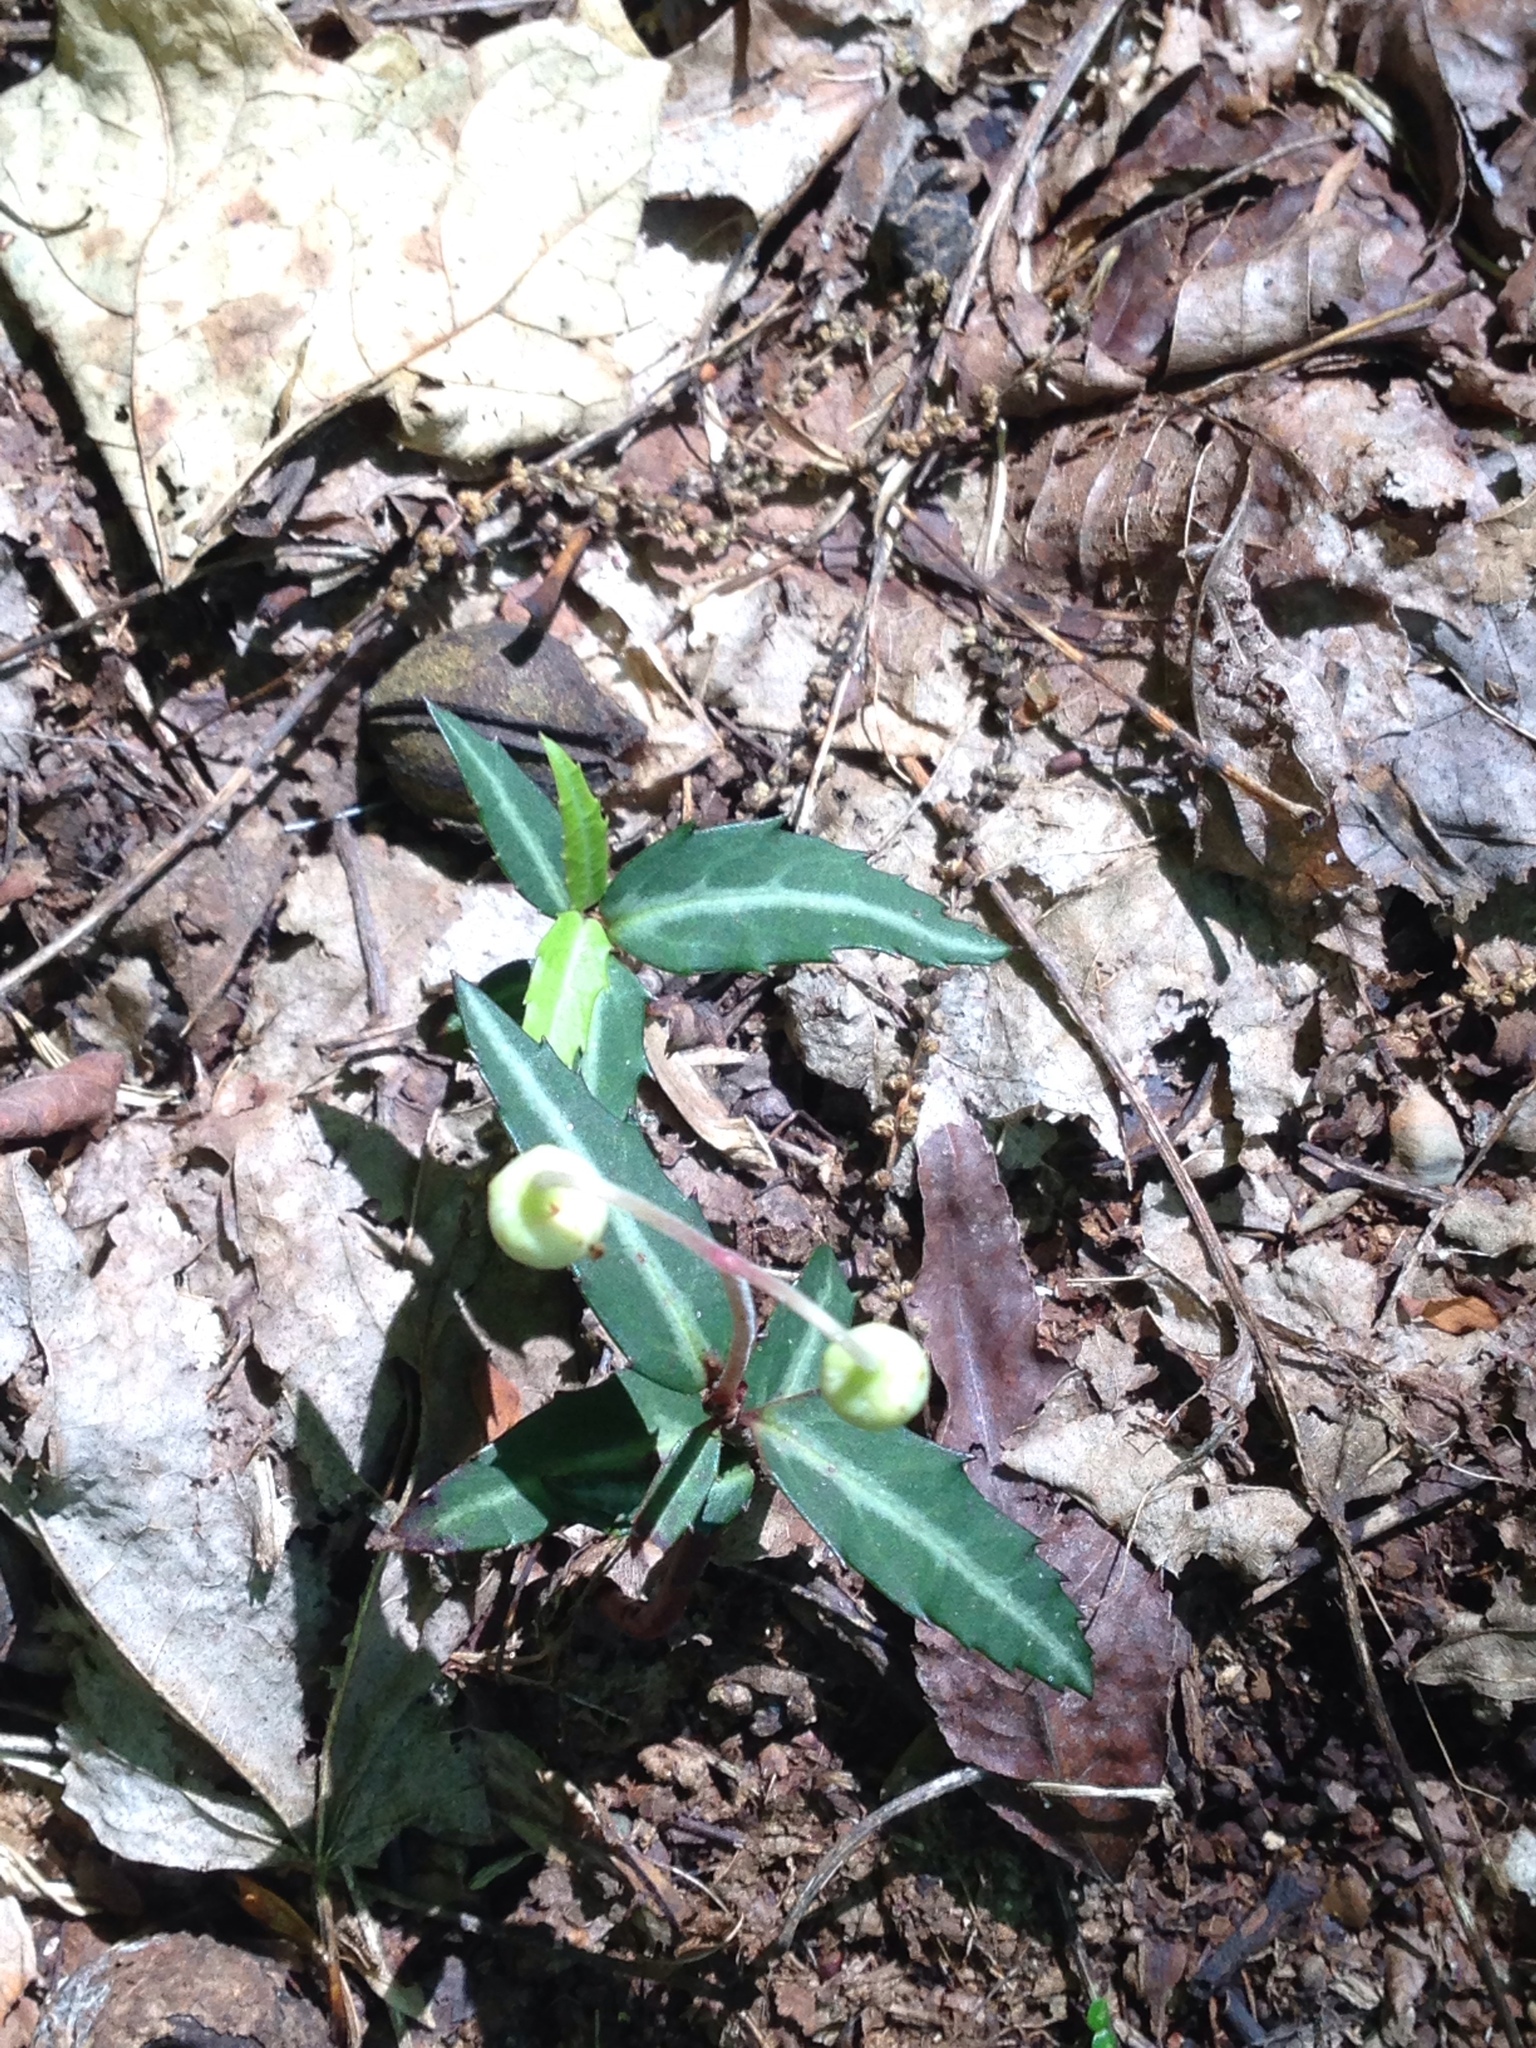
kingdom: Plantae
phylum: Tracheophyta
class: Magnoliopsida
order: Ericales
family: Ericaceae
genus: Chimaphila
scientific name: Chimaphila maculata
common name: Spotted pipsissewa
